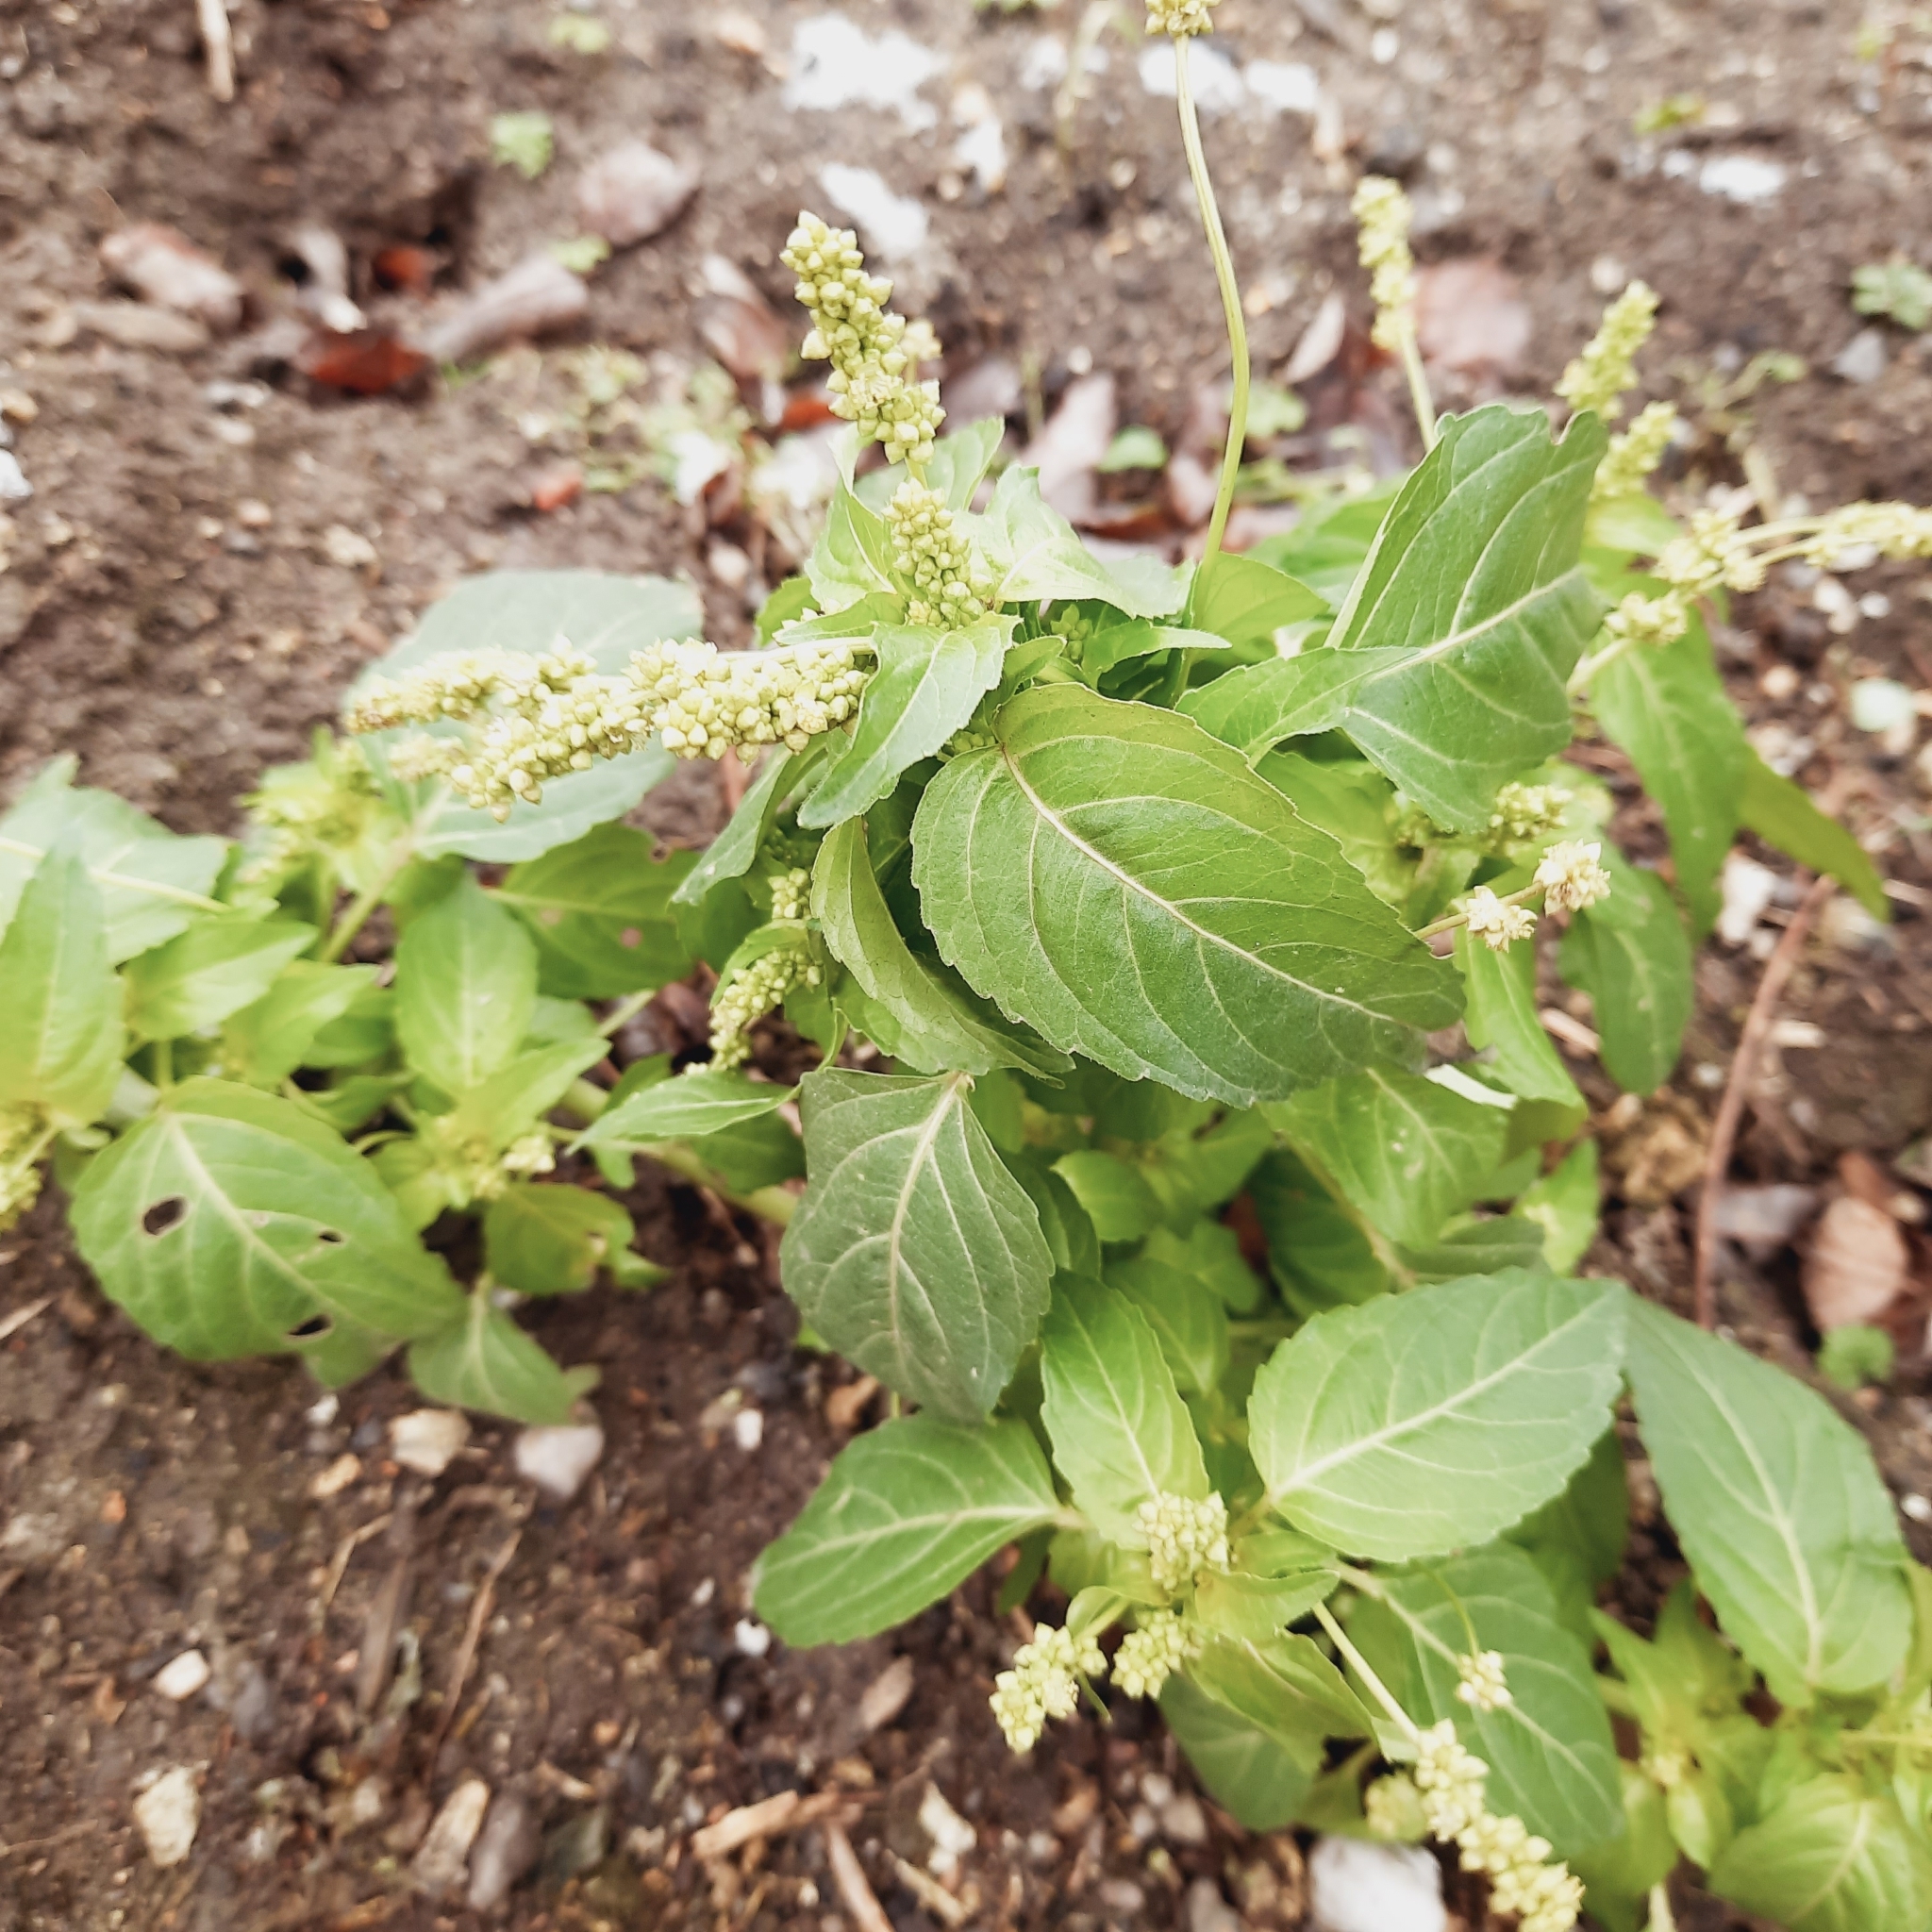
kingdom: Plantae
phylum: Tracheophyta
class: Magnoliopsida
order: Malpighiales
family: Euphorbiaceae
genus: Mercurialis
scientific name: Mercurialis annua
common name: Annual mercury
